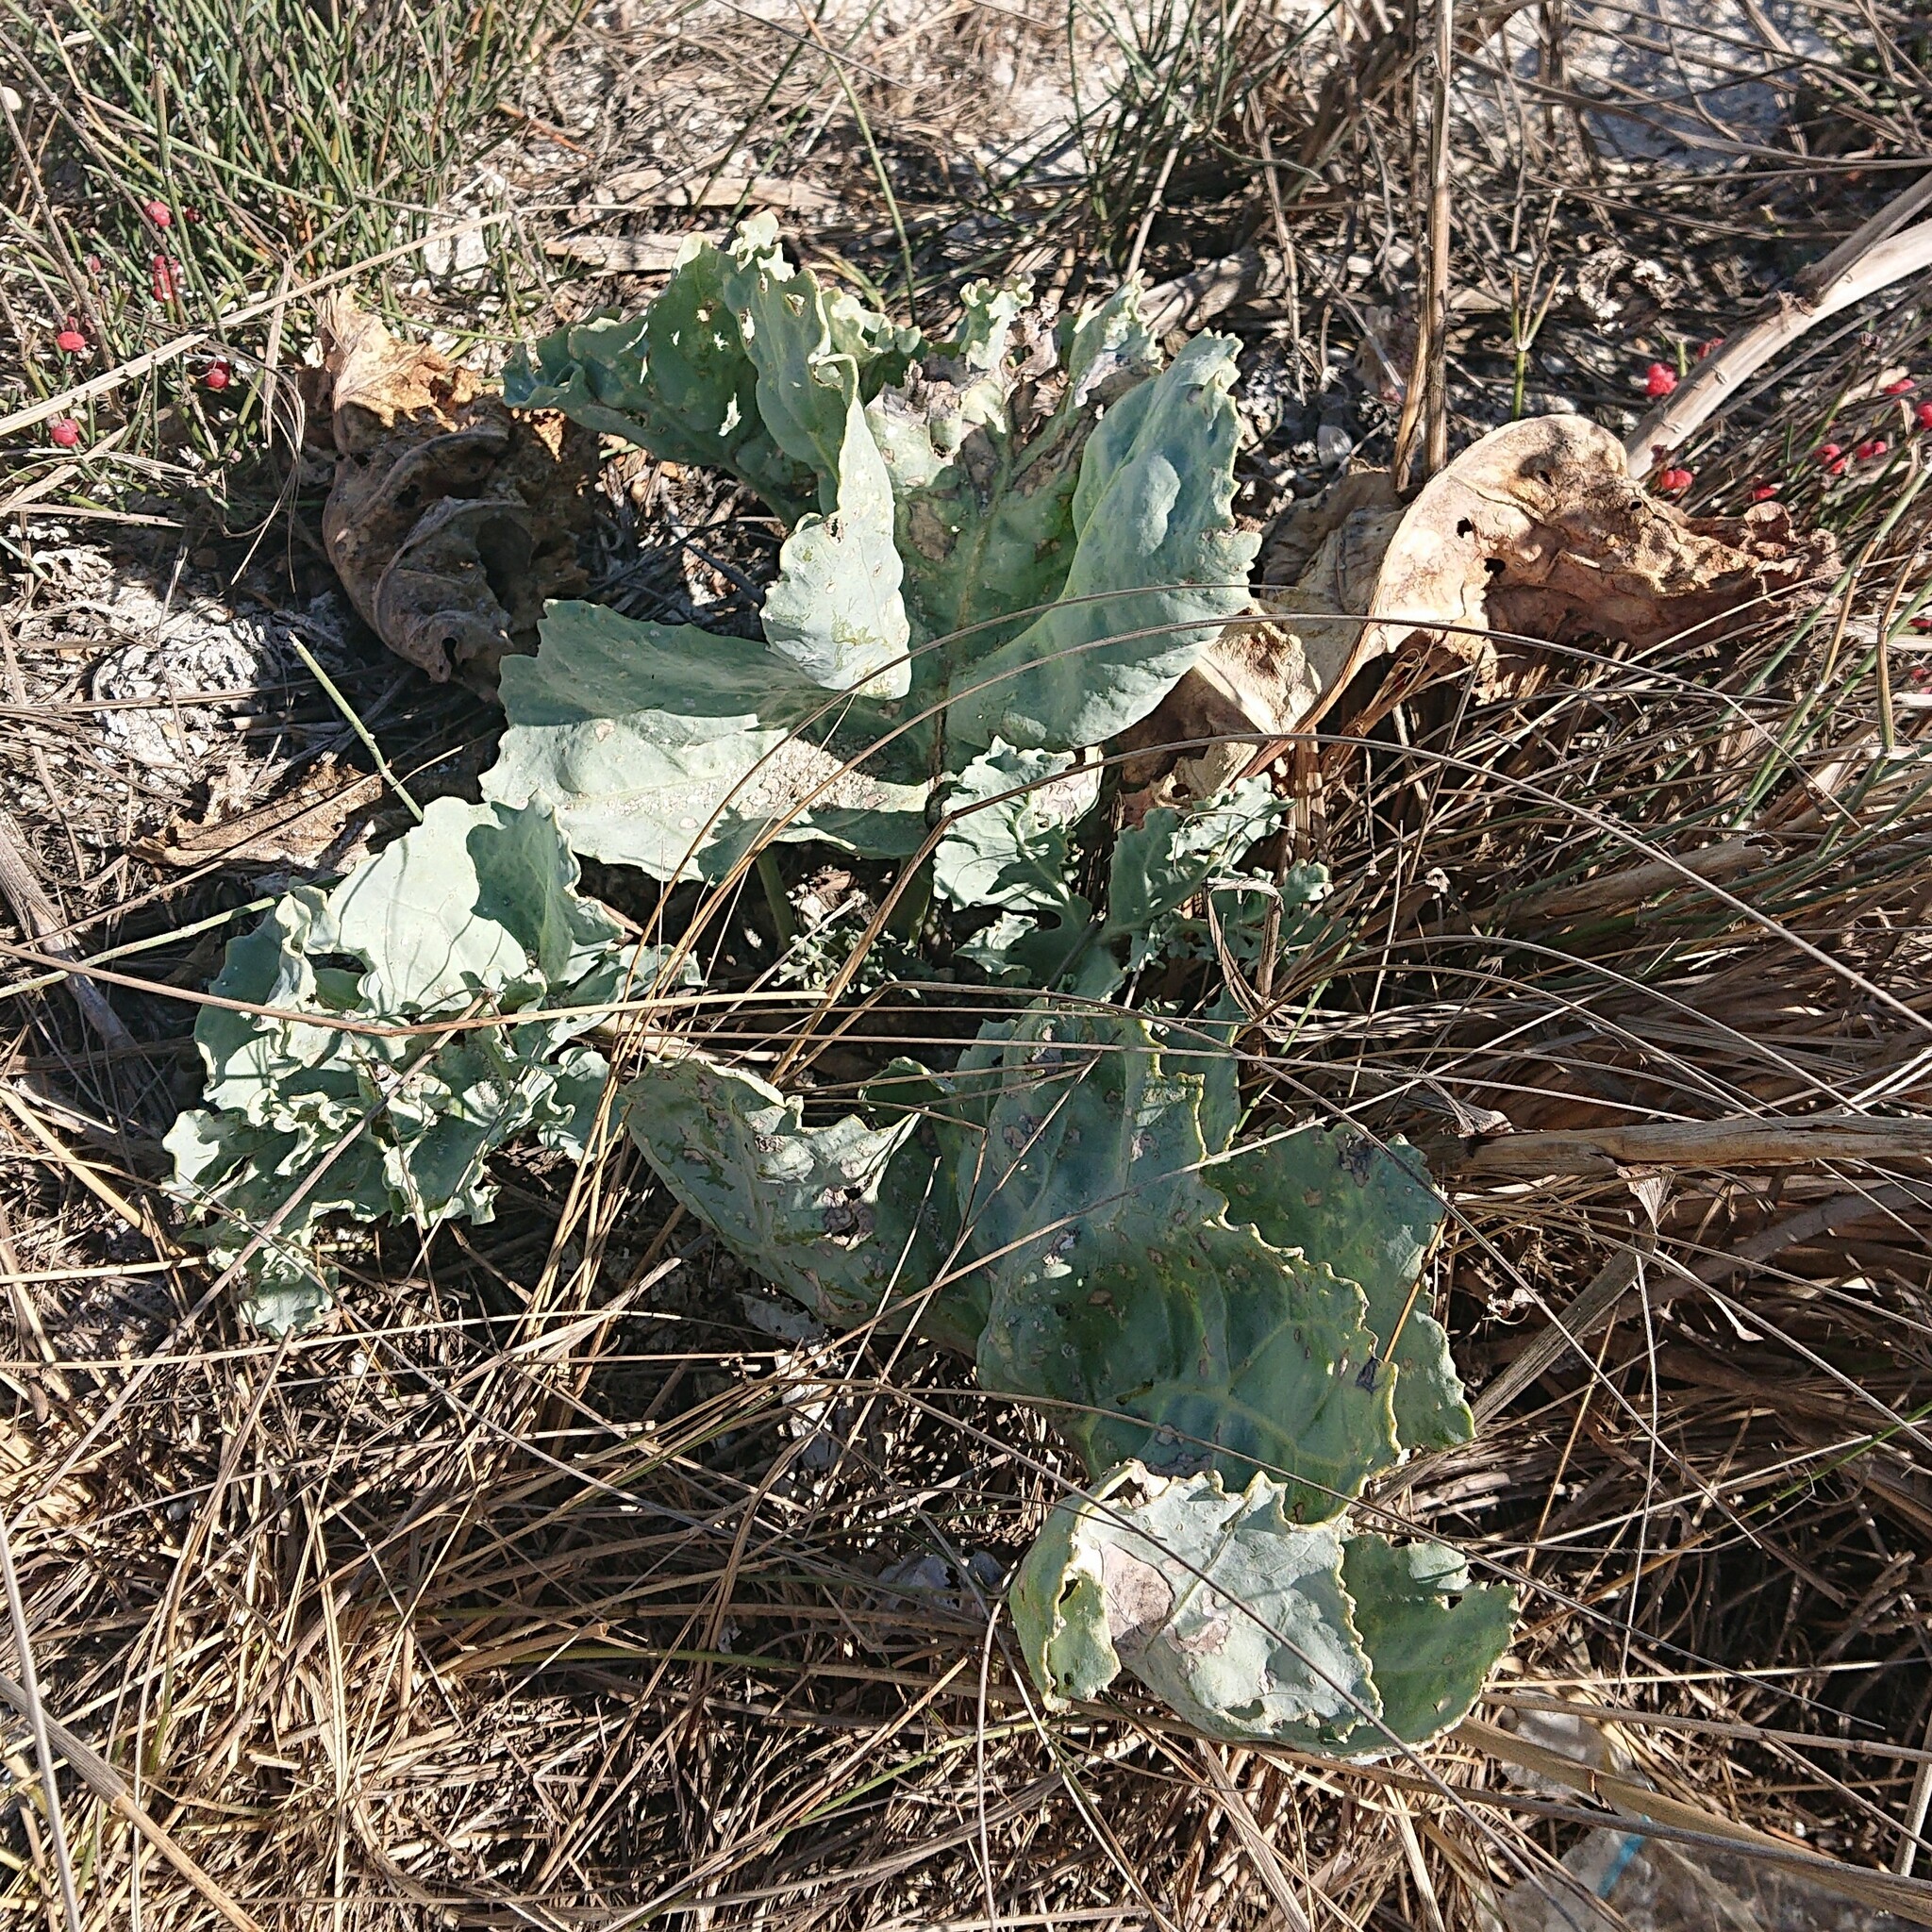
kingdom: Plantae
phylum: Tracheophyta
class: Magnoliopsida
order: Brassicales
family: Brassicaceae
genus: Crambe
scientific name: Crambe maritima
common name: Sea-kale
